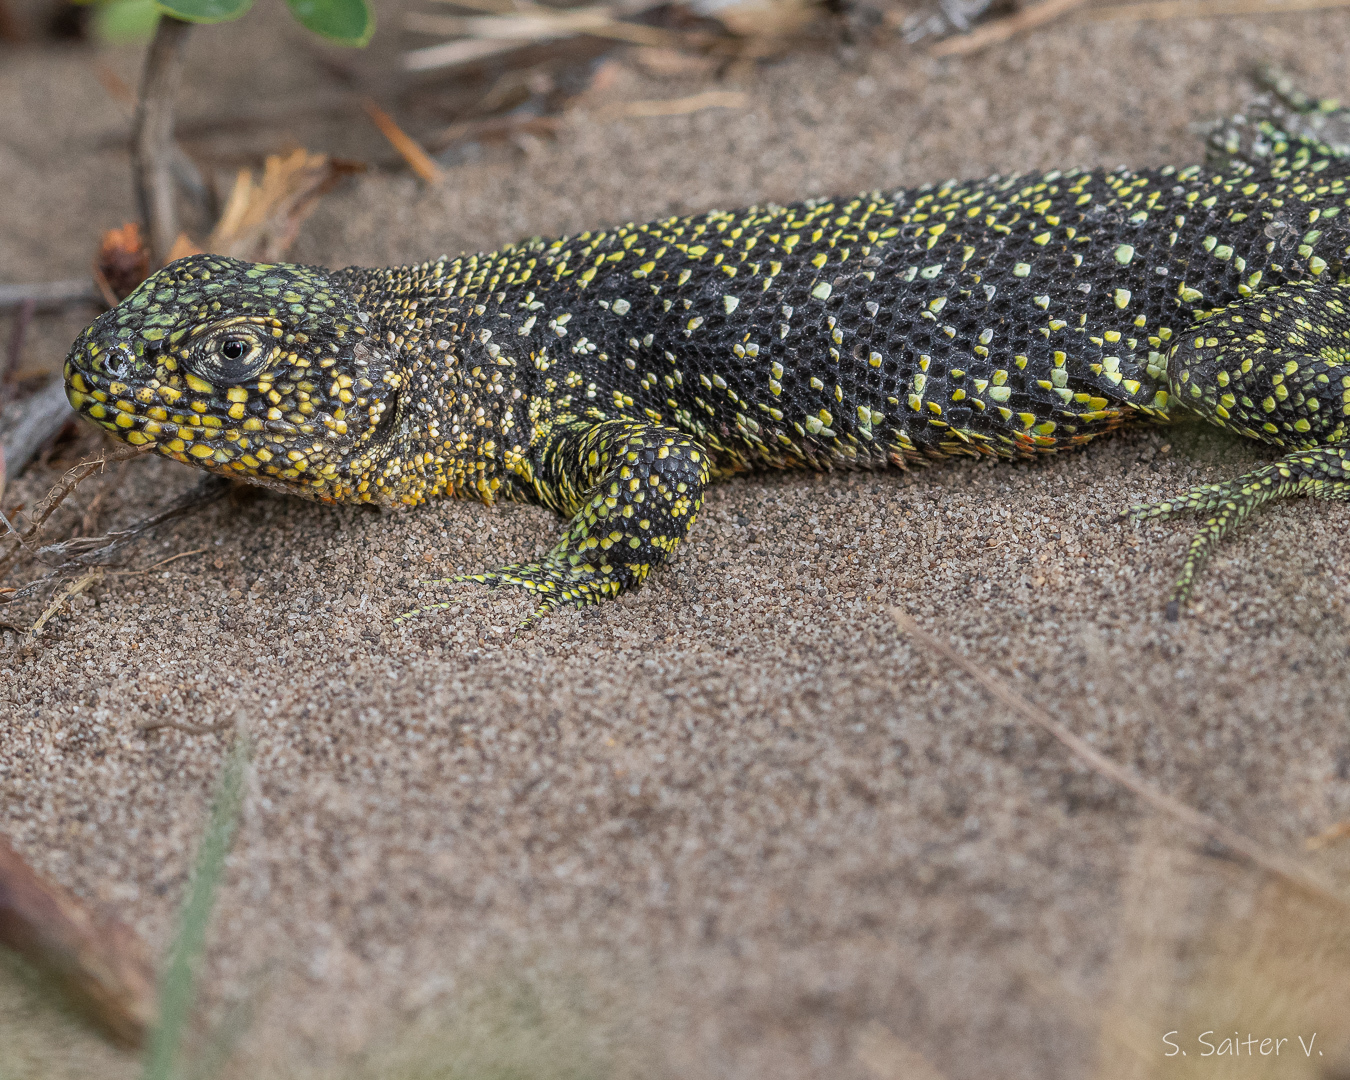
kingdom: Animalia
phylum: Chordata
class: Squamata
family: Liolaemidae
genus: Liolaemus
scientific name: Liolaemus sarmientoi
